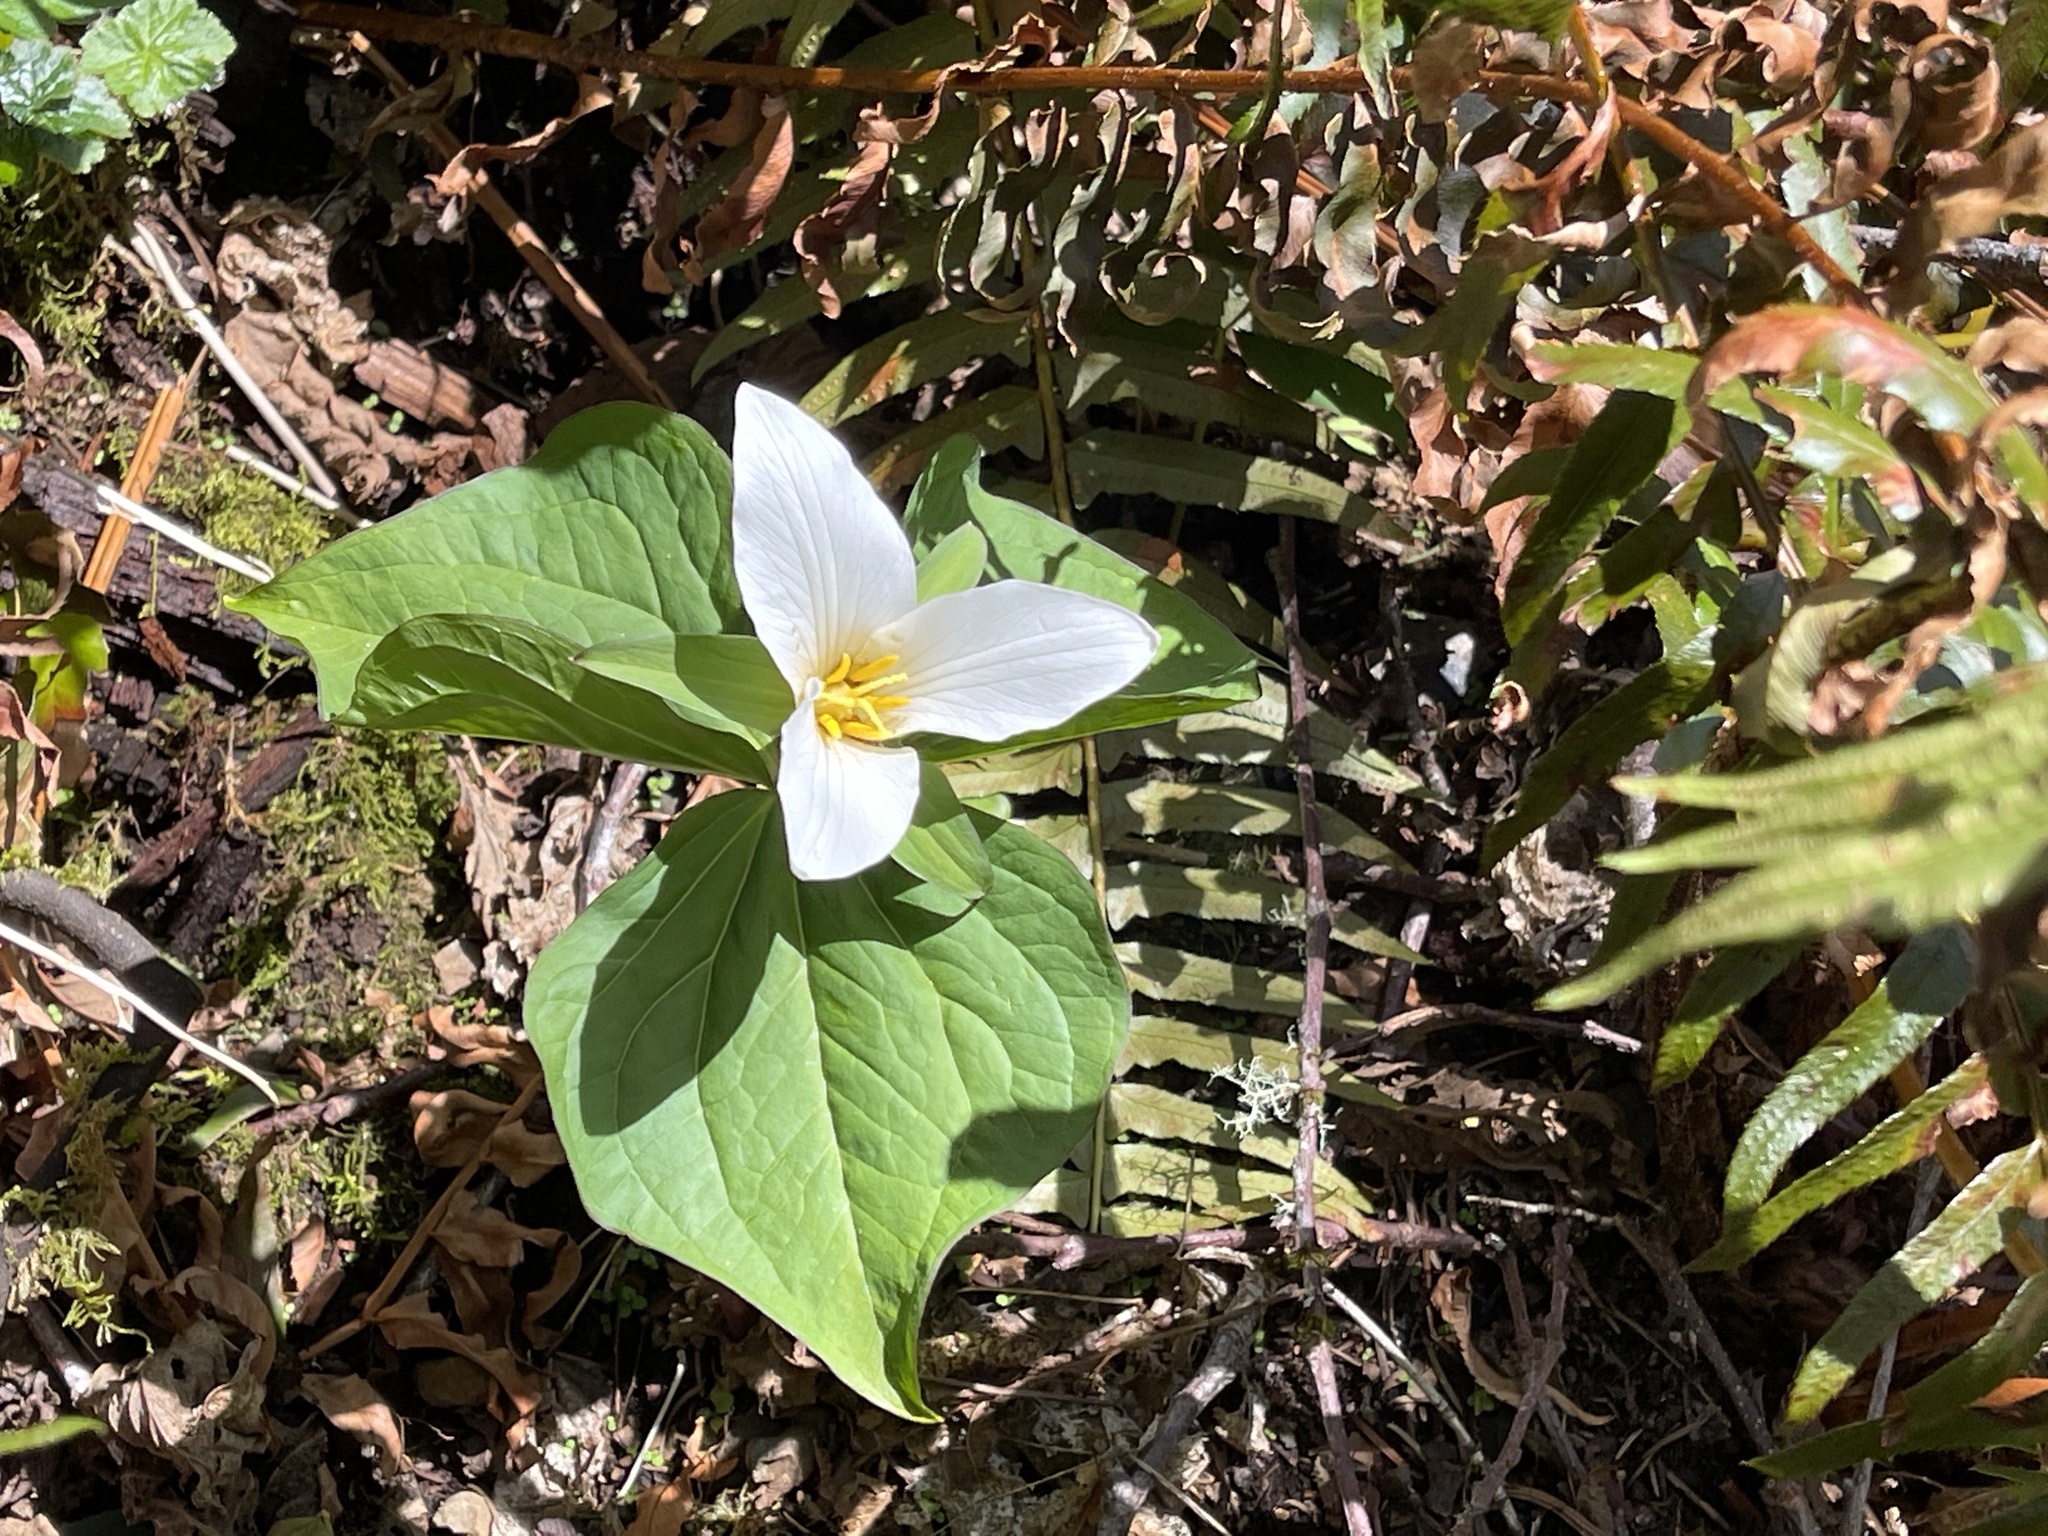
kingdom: Plantae
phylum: Tracheophyta
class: Liliopsida
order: Liliales
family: Melanthiaceae
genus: Trillium
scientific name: Trillium ovatum
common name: Pacific trillium
